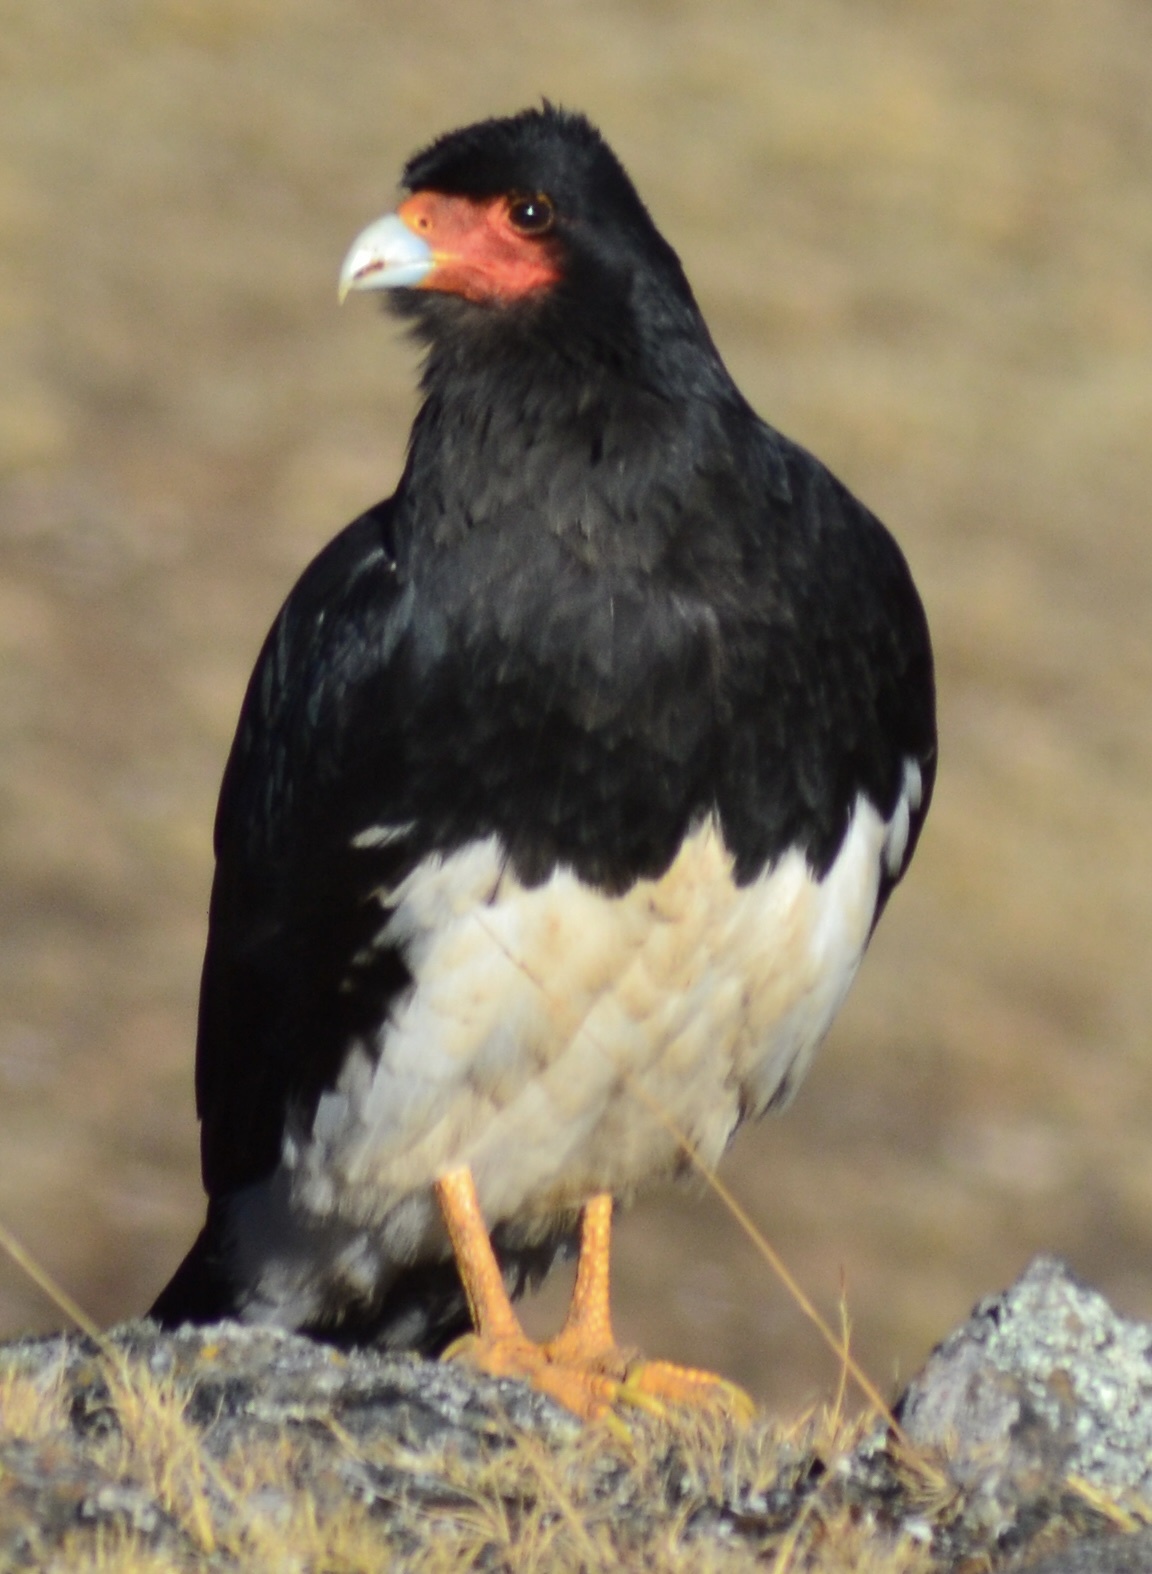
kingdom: Animalia
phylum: Chordata
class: Aves
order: Falconiformes
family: Falconidae
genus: Daptrius
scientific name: Daptrius
